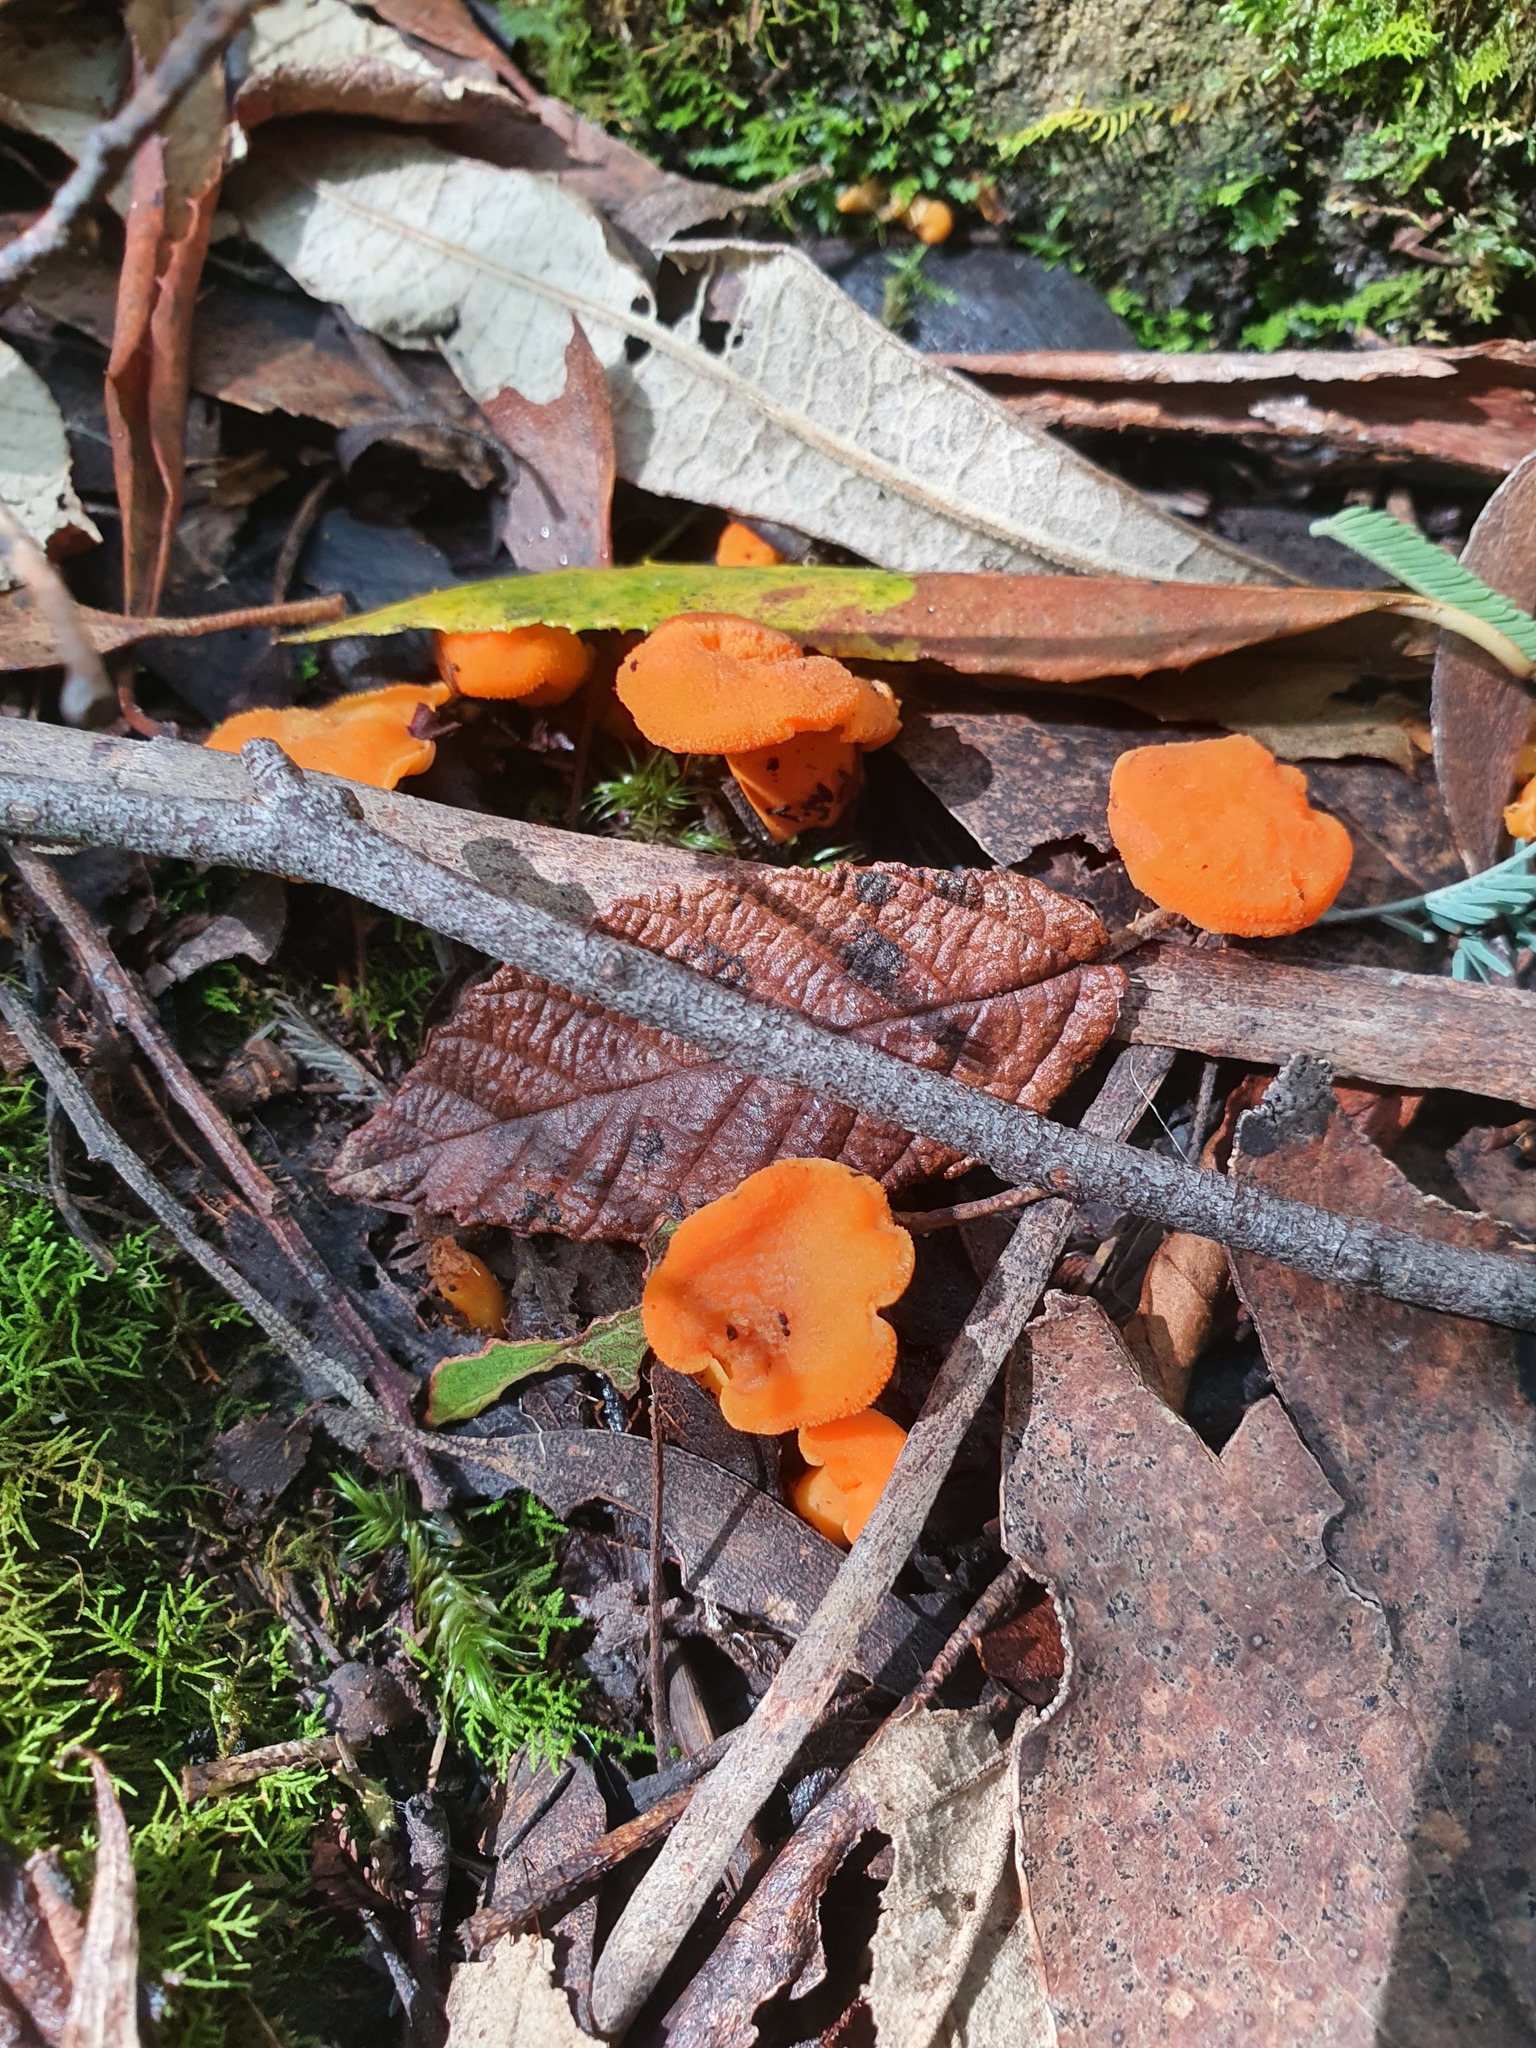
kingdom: Fungi
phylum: Basidiomycota
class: Agaricomycetes
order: Cantharellales
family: Hydnaceae
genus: Cantharellus
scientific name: Cantharellus
